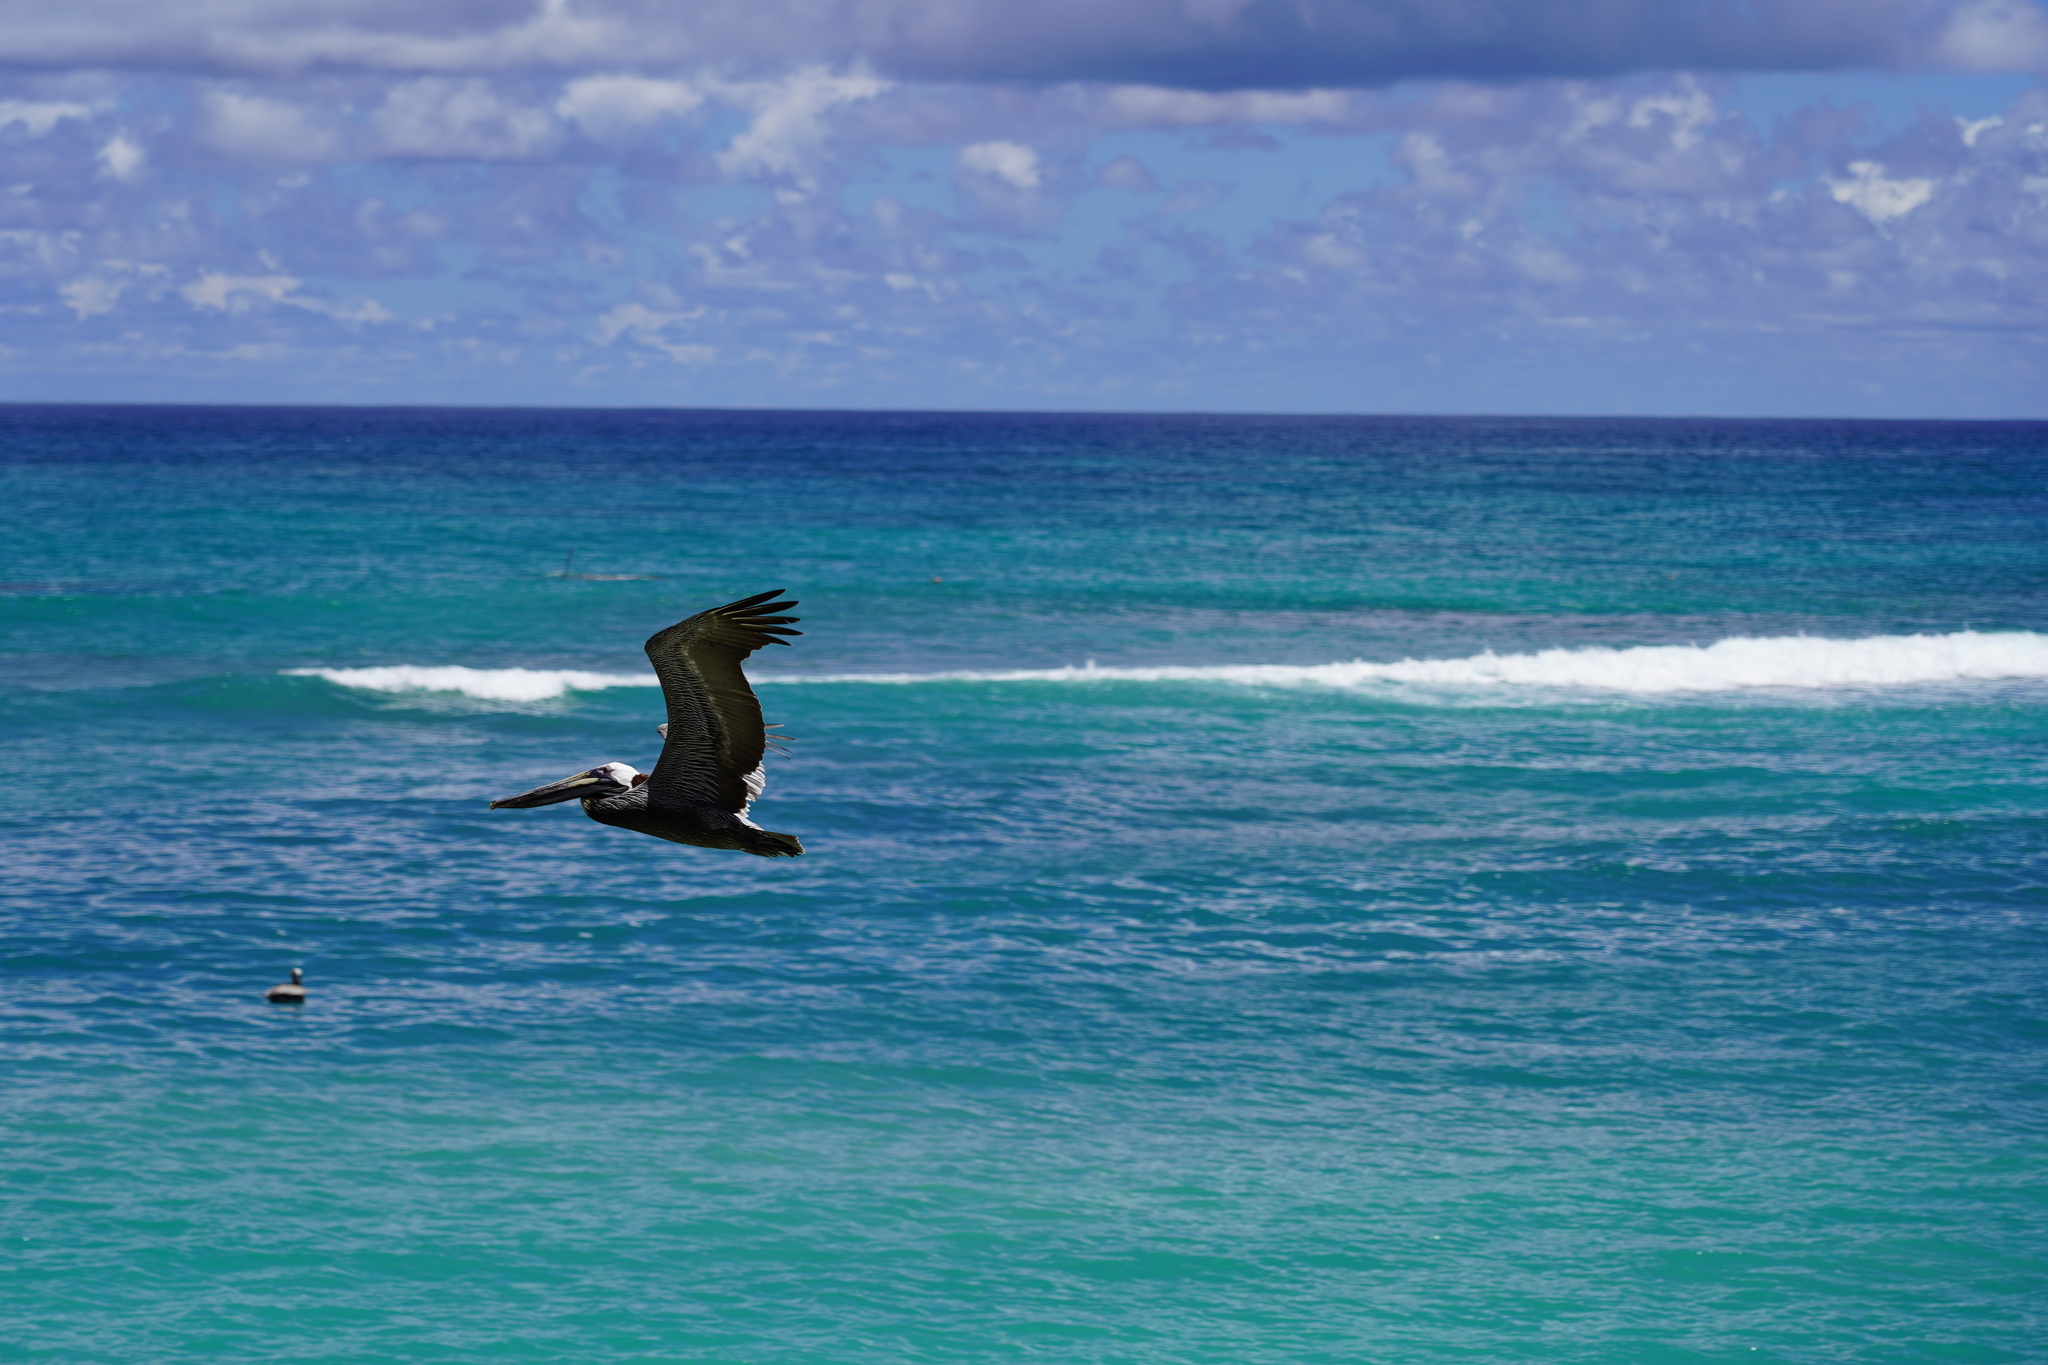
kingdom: Animalia
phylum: Chordata
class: Aves
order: Pelecaniformes
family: Pelecanidae
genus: Pelecanus
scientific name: Pelecanus occidentalis
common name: Brown pelican
